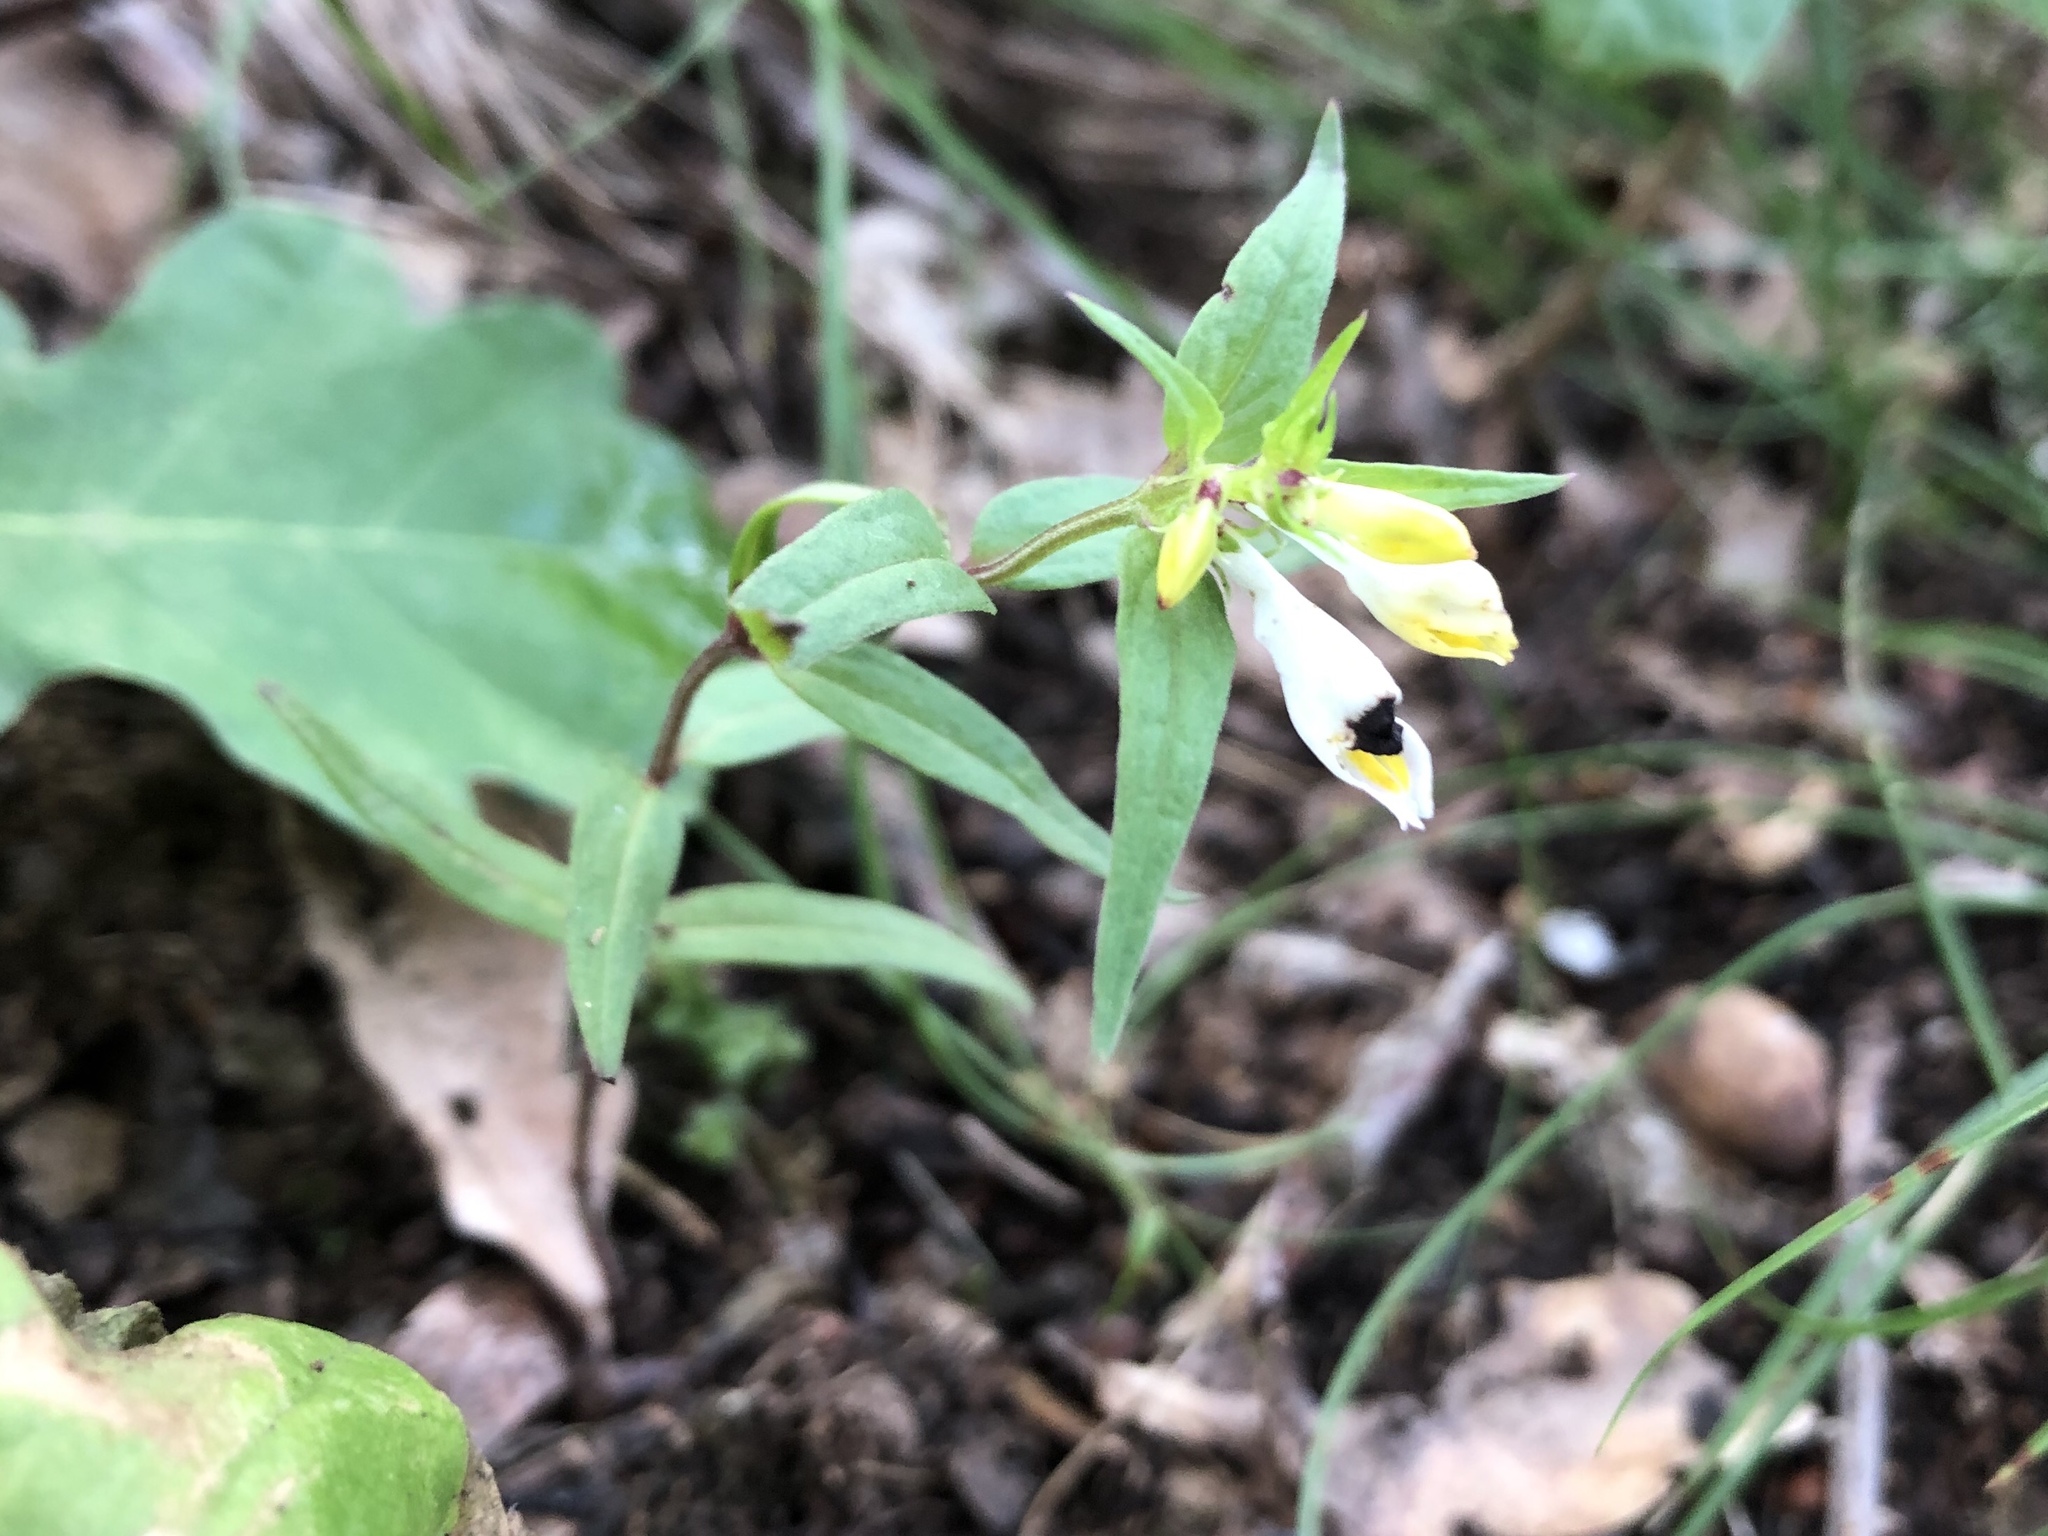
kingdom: Plantae
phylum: Tracheophyta
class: Magnoliopsida
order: Lamiales
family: Orobanchaceae
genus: Melampyrum
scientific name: Melampyrum pratense
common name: Common cow-wheat
